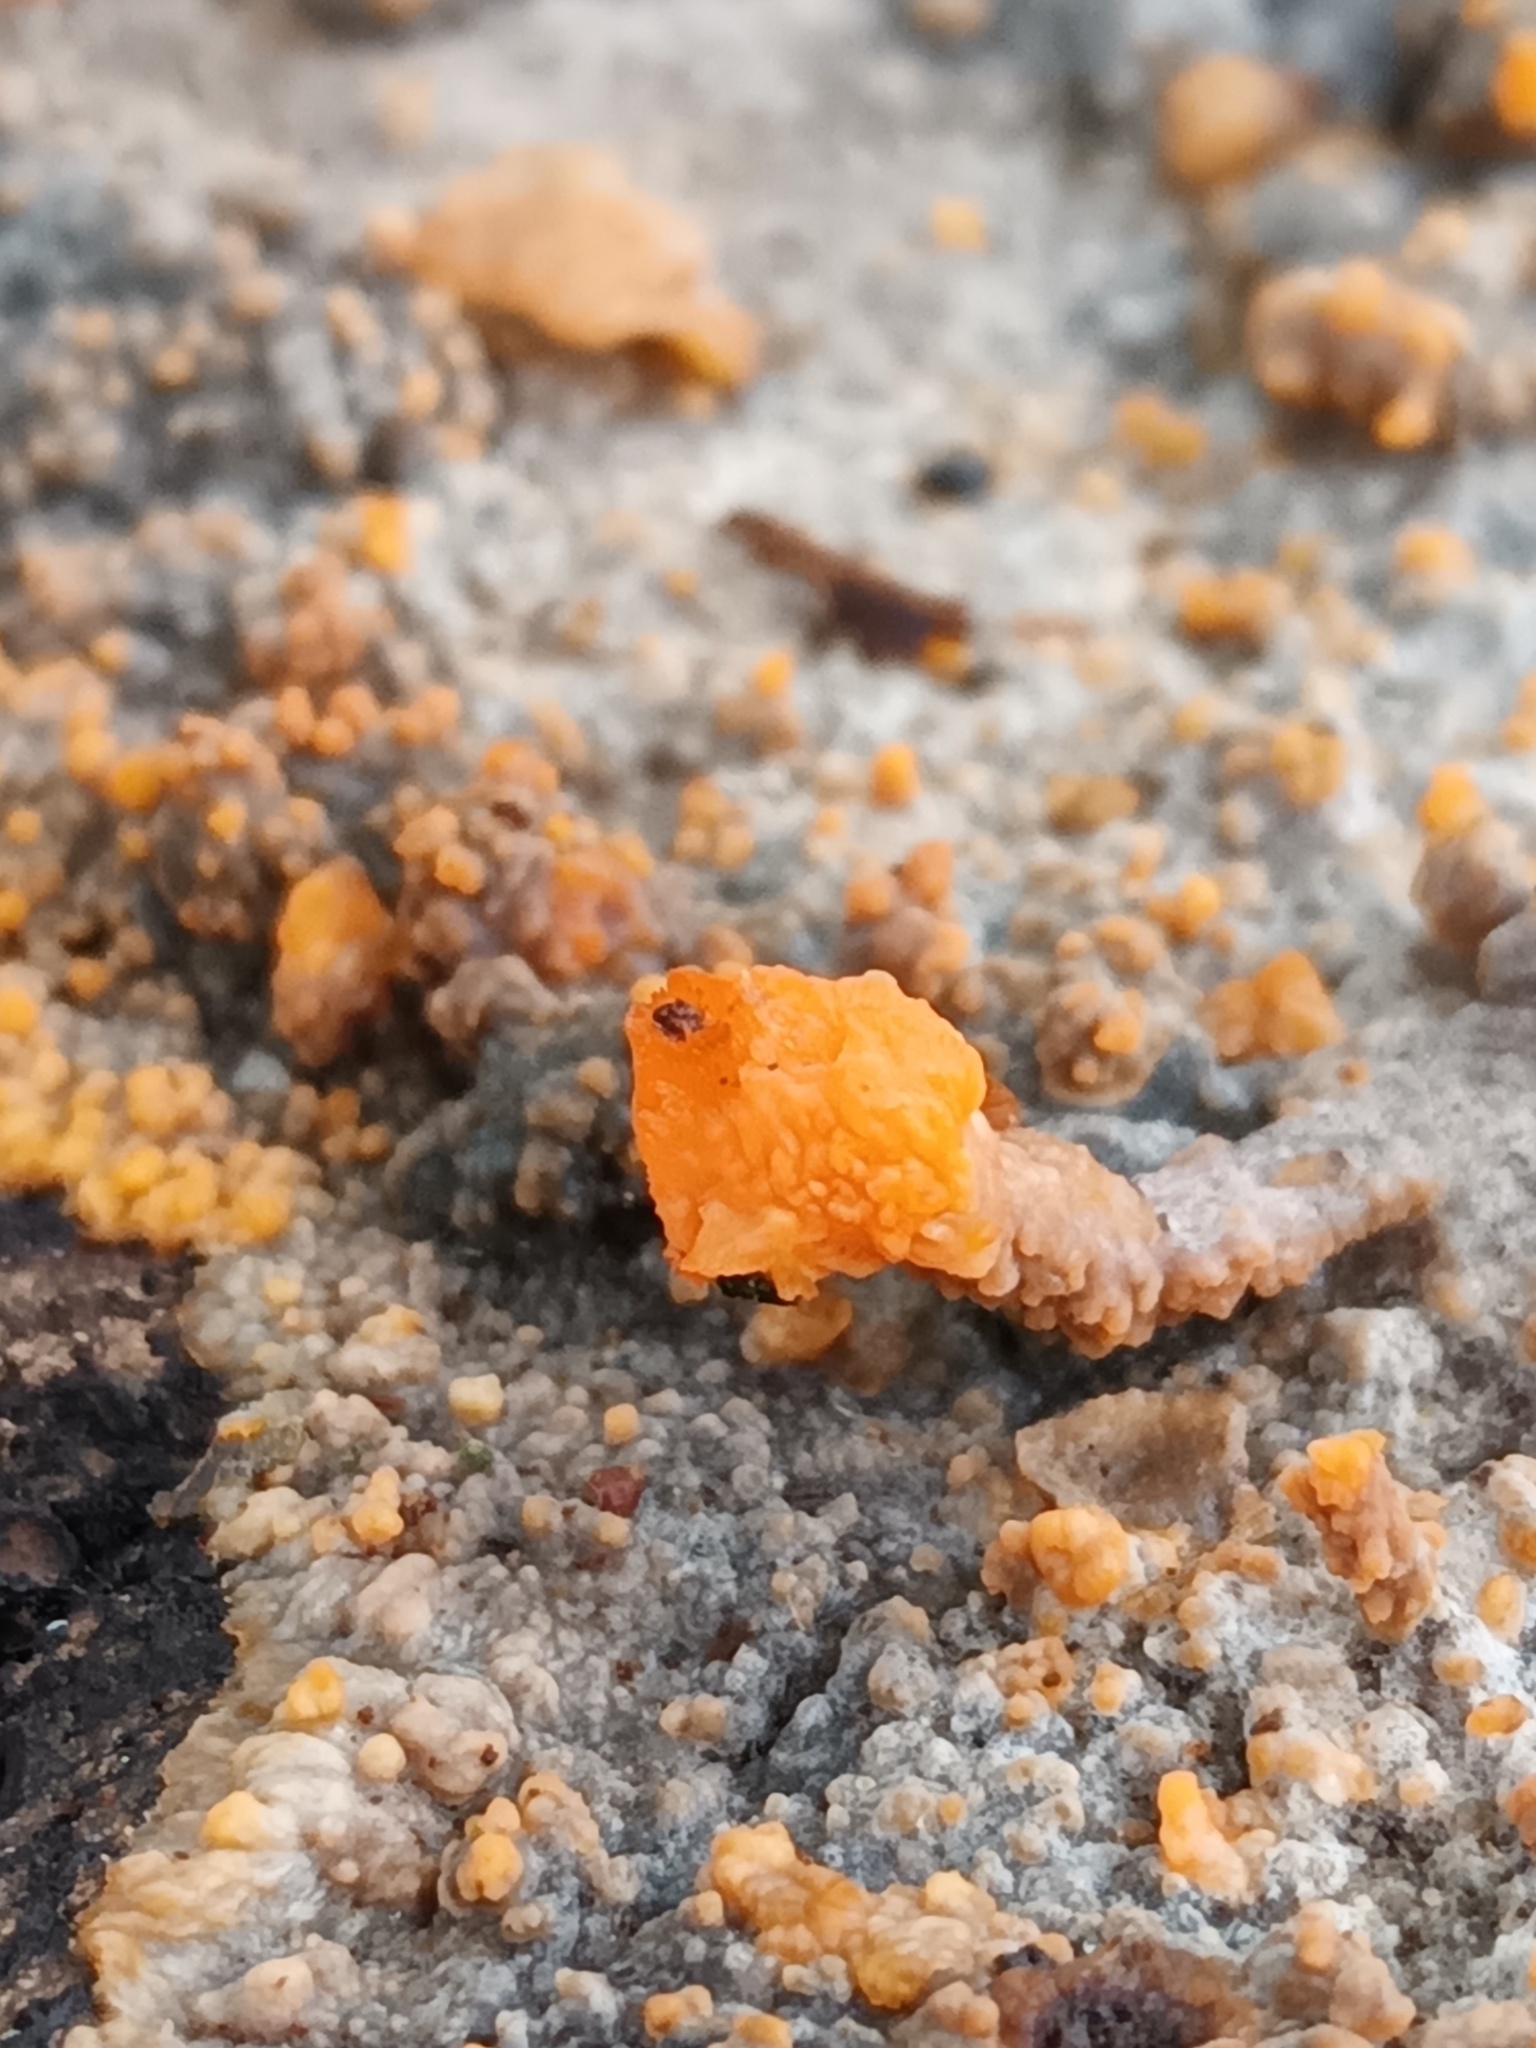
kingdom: Fungi
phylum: Basidiomycota
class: Agaricomycetes
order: Polyporales
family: Meruliaceae
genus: Phlebia
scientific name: Phlebia radiata
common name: Wrinkled crust
